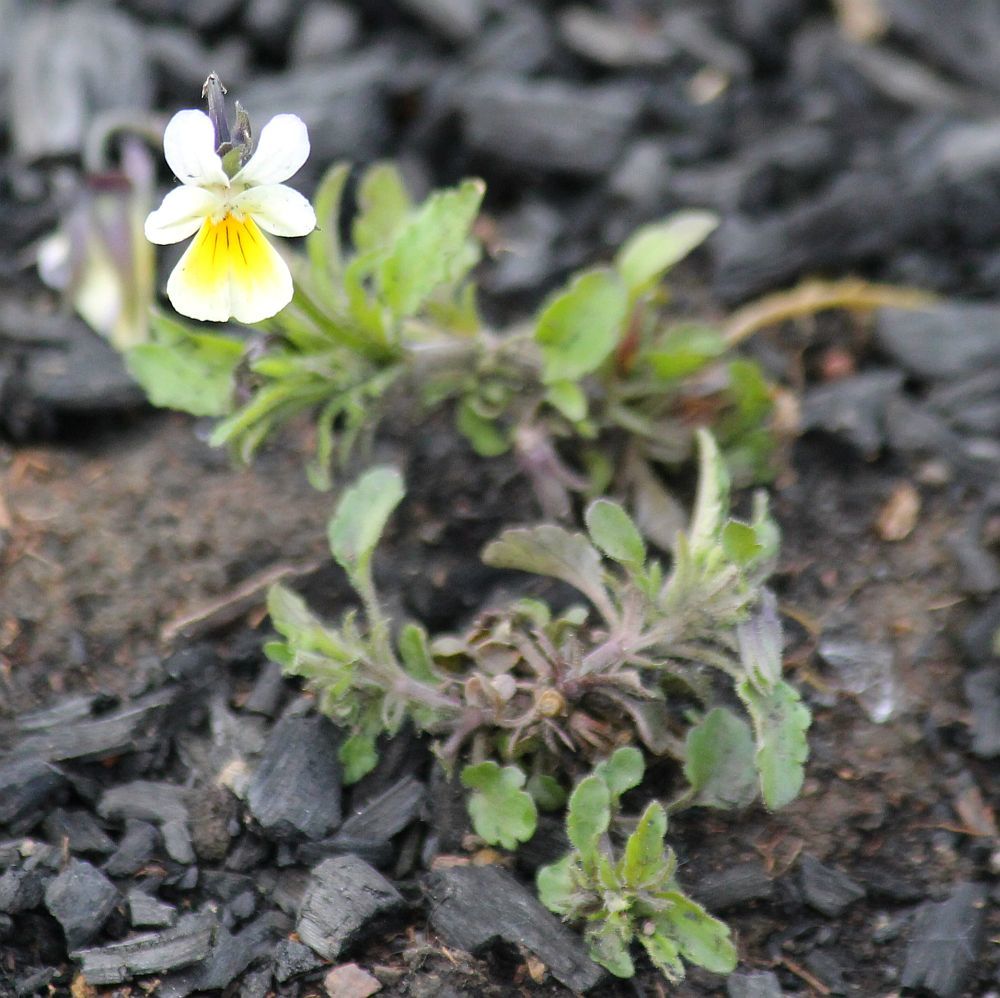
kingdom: Plantae
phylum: Tracheophyta
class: Magnoliopsida
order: Malpighiales
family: Violaceae
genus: Viola
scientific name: Viola arvensis
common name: Field pansy
